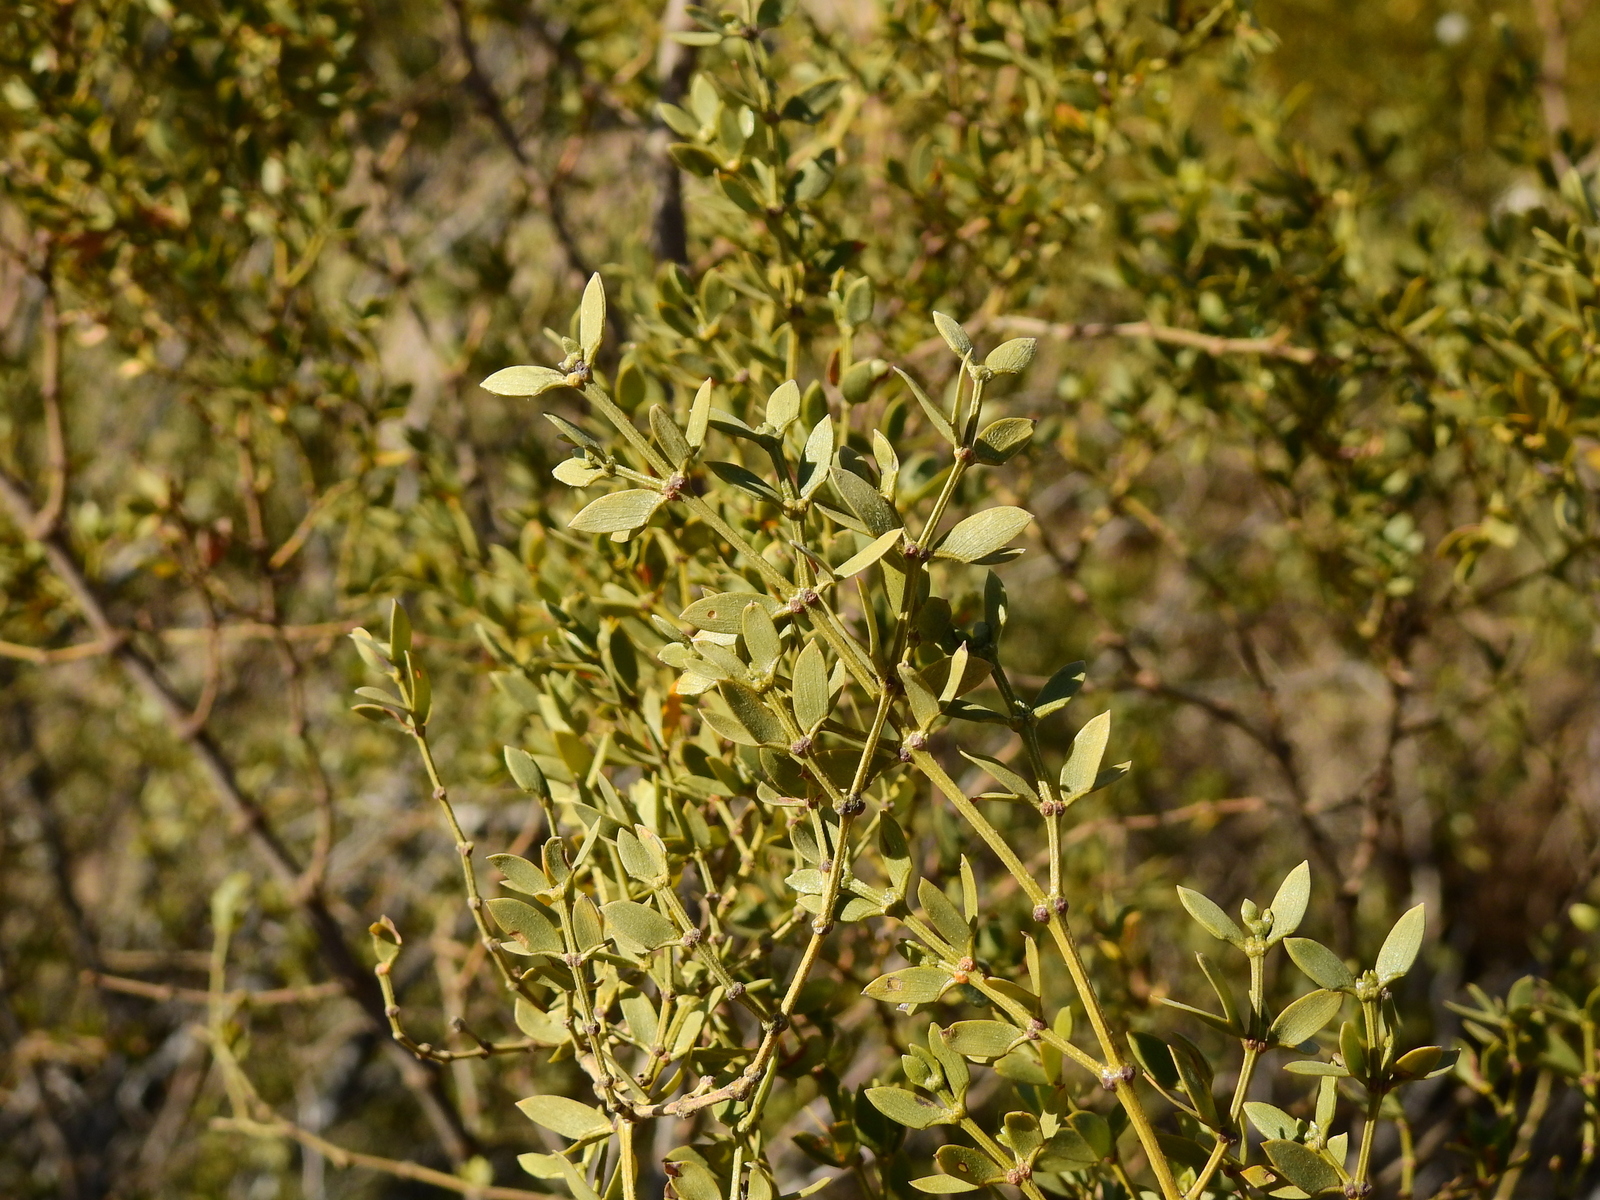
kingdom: Plantae
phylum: Tracheophyta
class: Magnoliopsida
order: Zygophyllales
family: Zygophyllaceae
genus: Larrea
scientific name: Larrea divaricata
